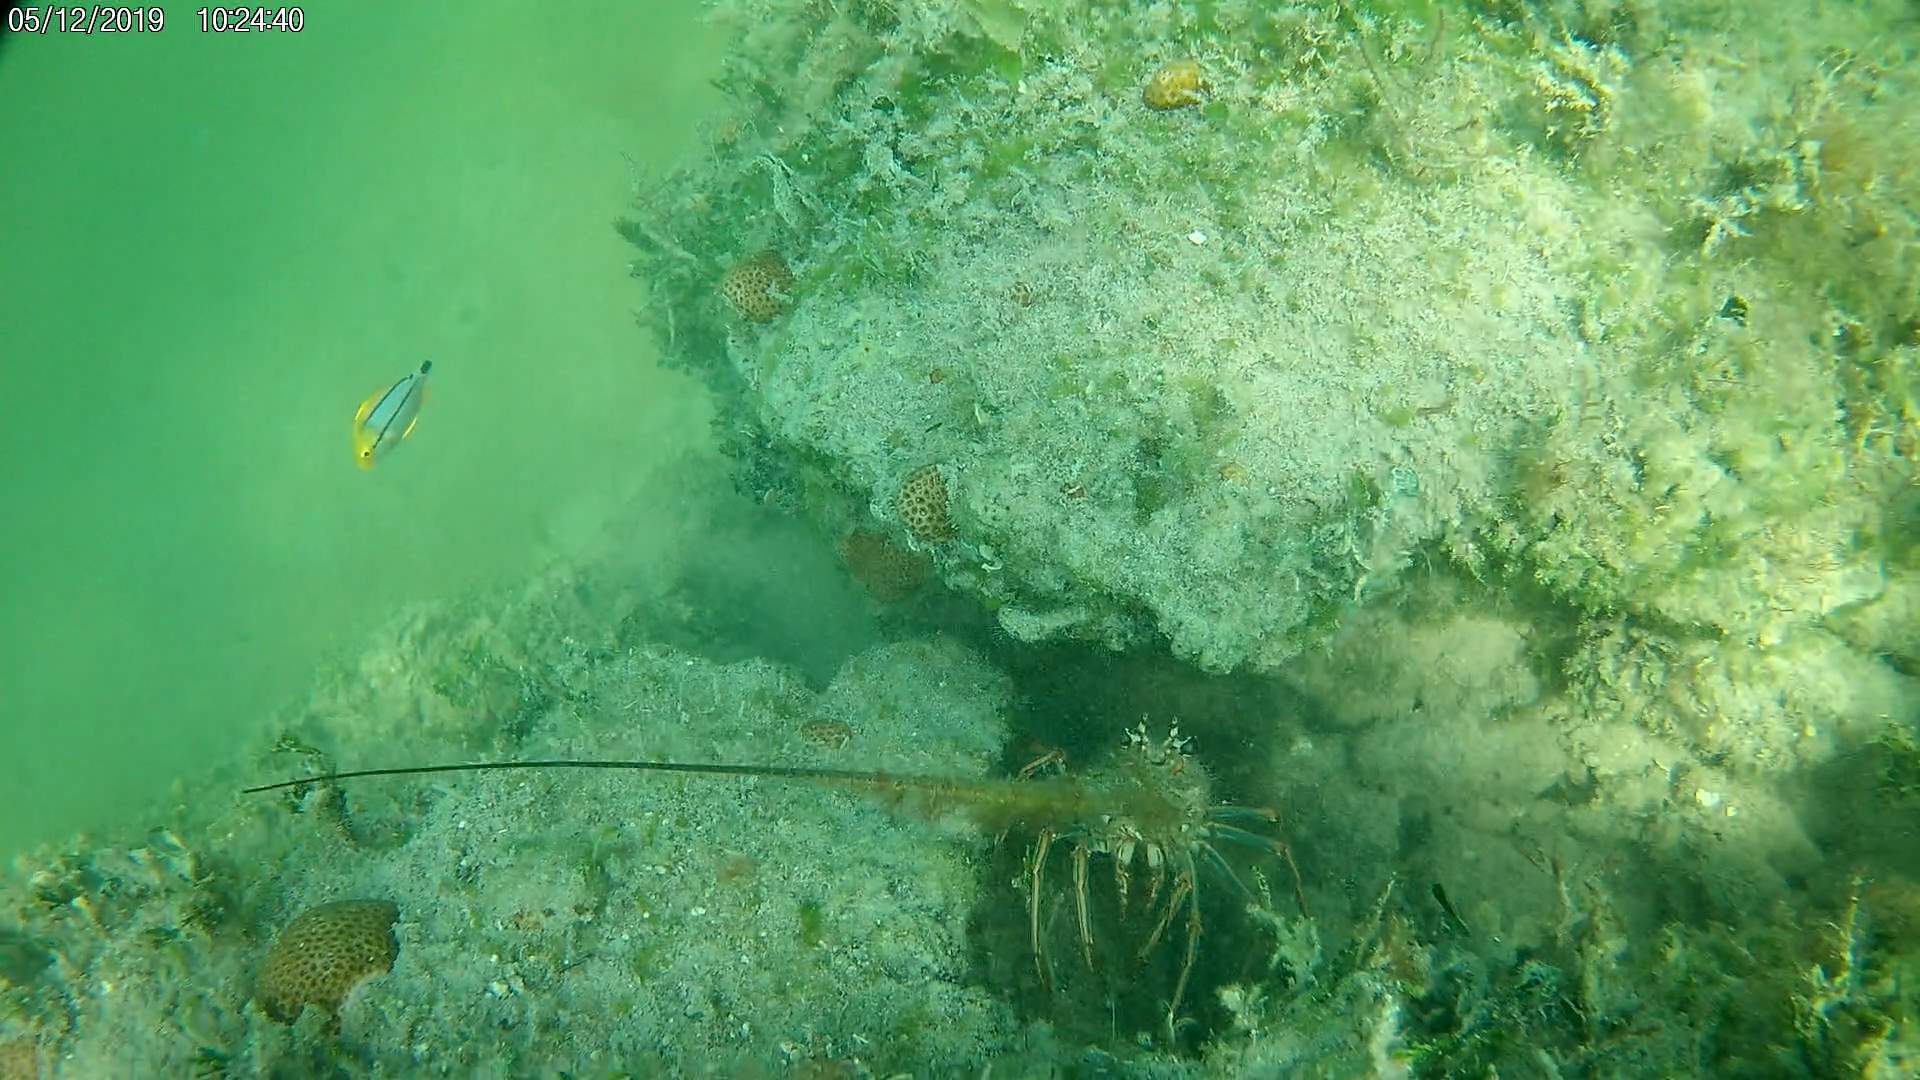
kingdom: Animalia
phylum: Chordata
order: Perciformes
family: Haemulidae
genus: Anisotremus
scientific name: Anisotremus virginicus
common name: Porkfish
